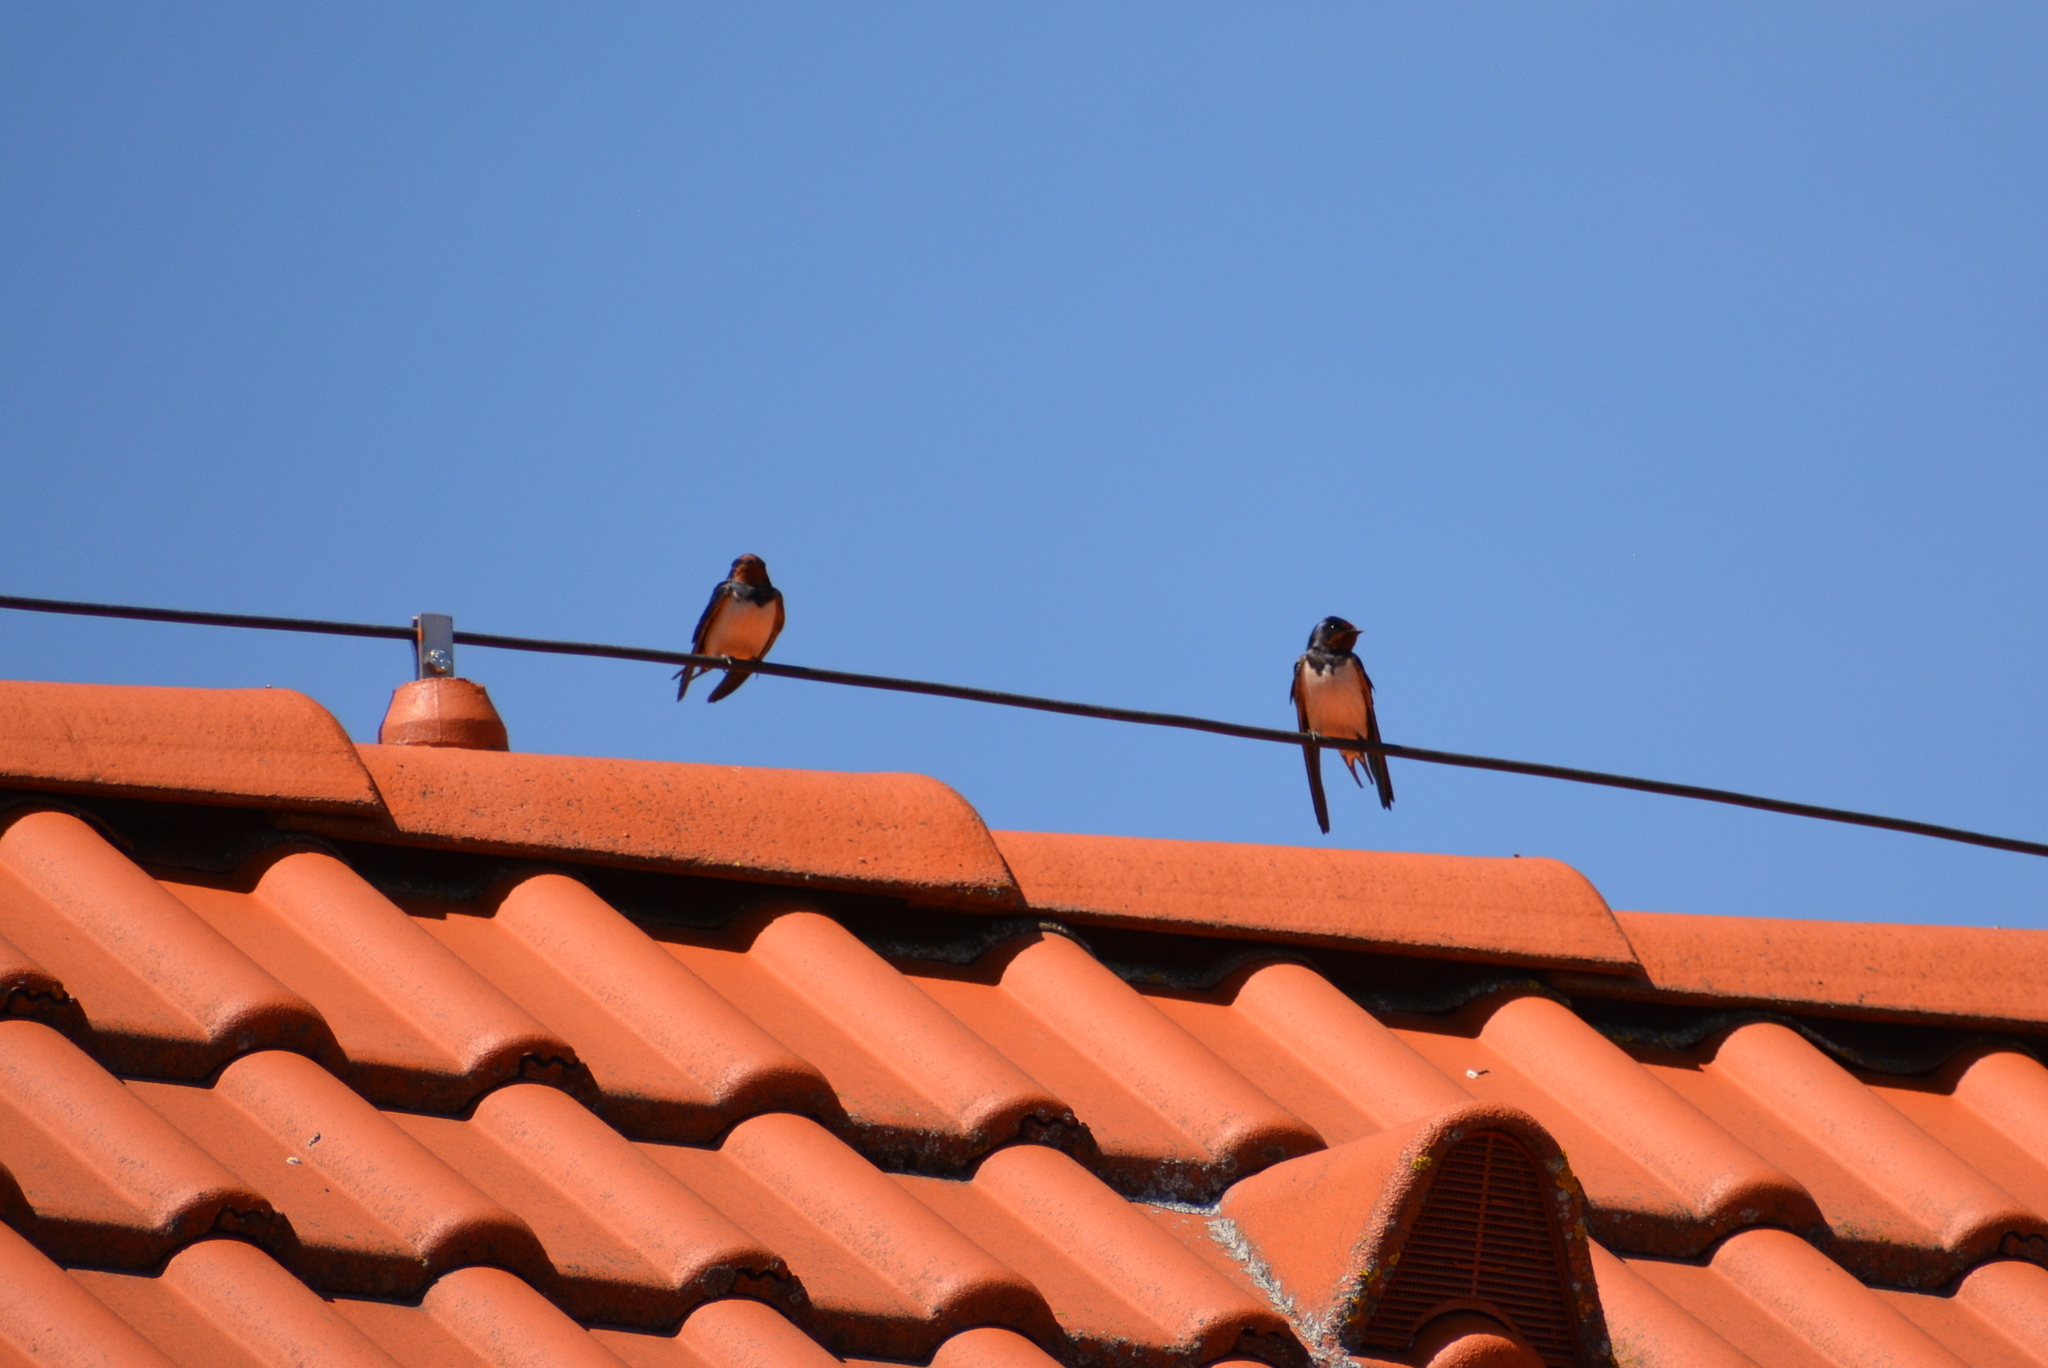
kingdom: Animalia
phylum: Chordata
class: Aves
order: Passeriformes
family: Hirundinidae
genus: Hirundo
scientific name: Hirundo rustica
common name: Barn swallow
